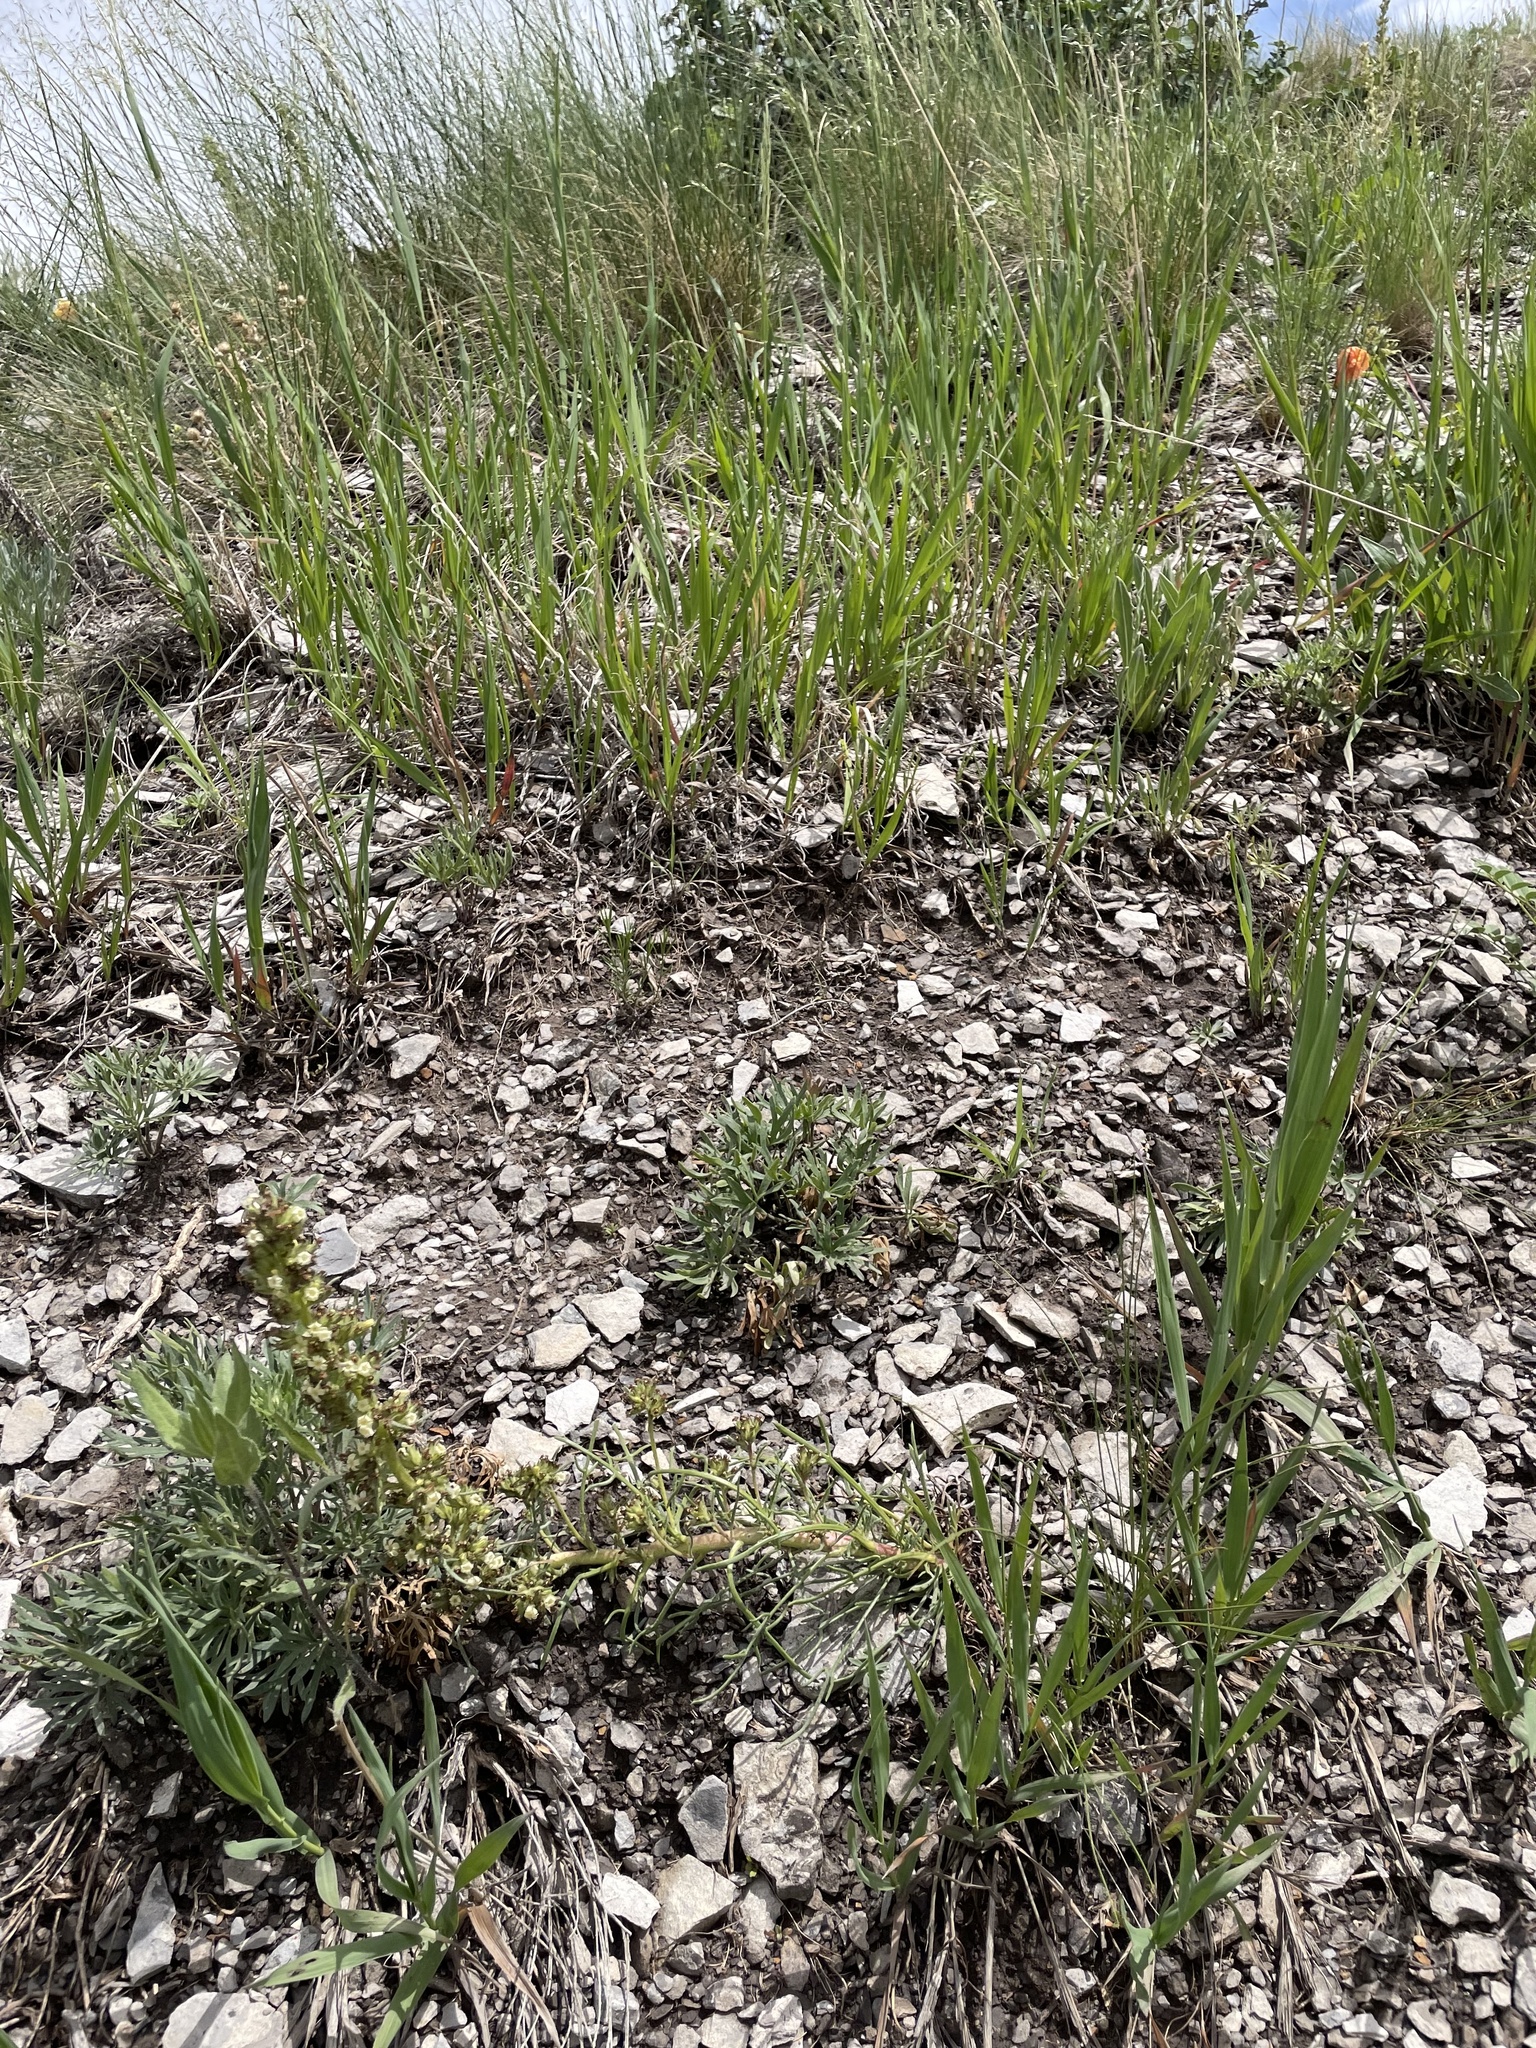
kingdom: Plantae
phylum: Tracheophyta
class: Magnoliopsida
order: Ericales
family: Polemoniaceae
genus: Ipomopsis
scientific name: Ipomopsis spicata
